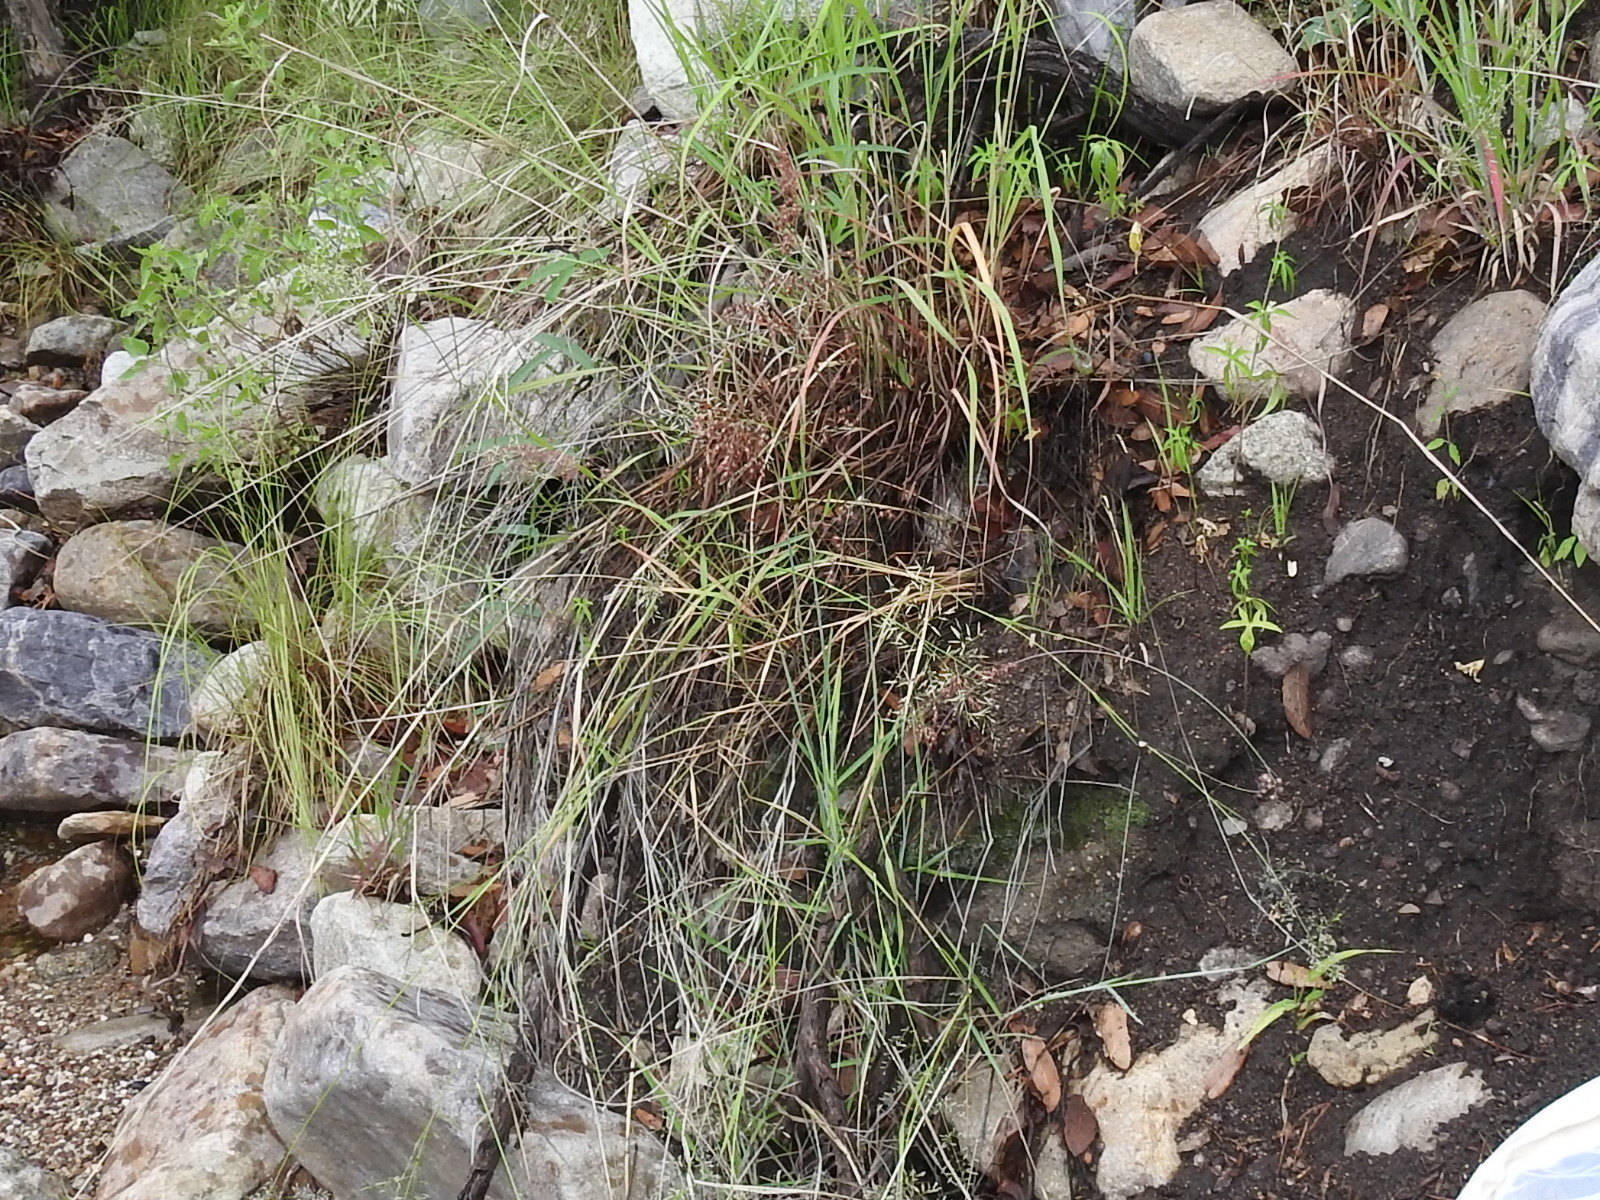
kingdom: Plantae
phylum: Tracheophyta
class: Liliopsida
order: Poales
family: Poaceae
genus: Melinis
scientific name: Melinis repens
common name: Rose natal grass
